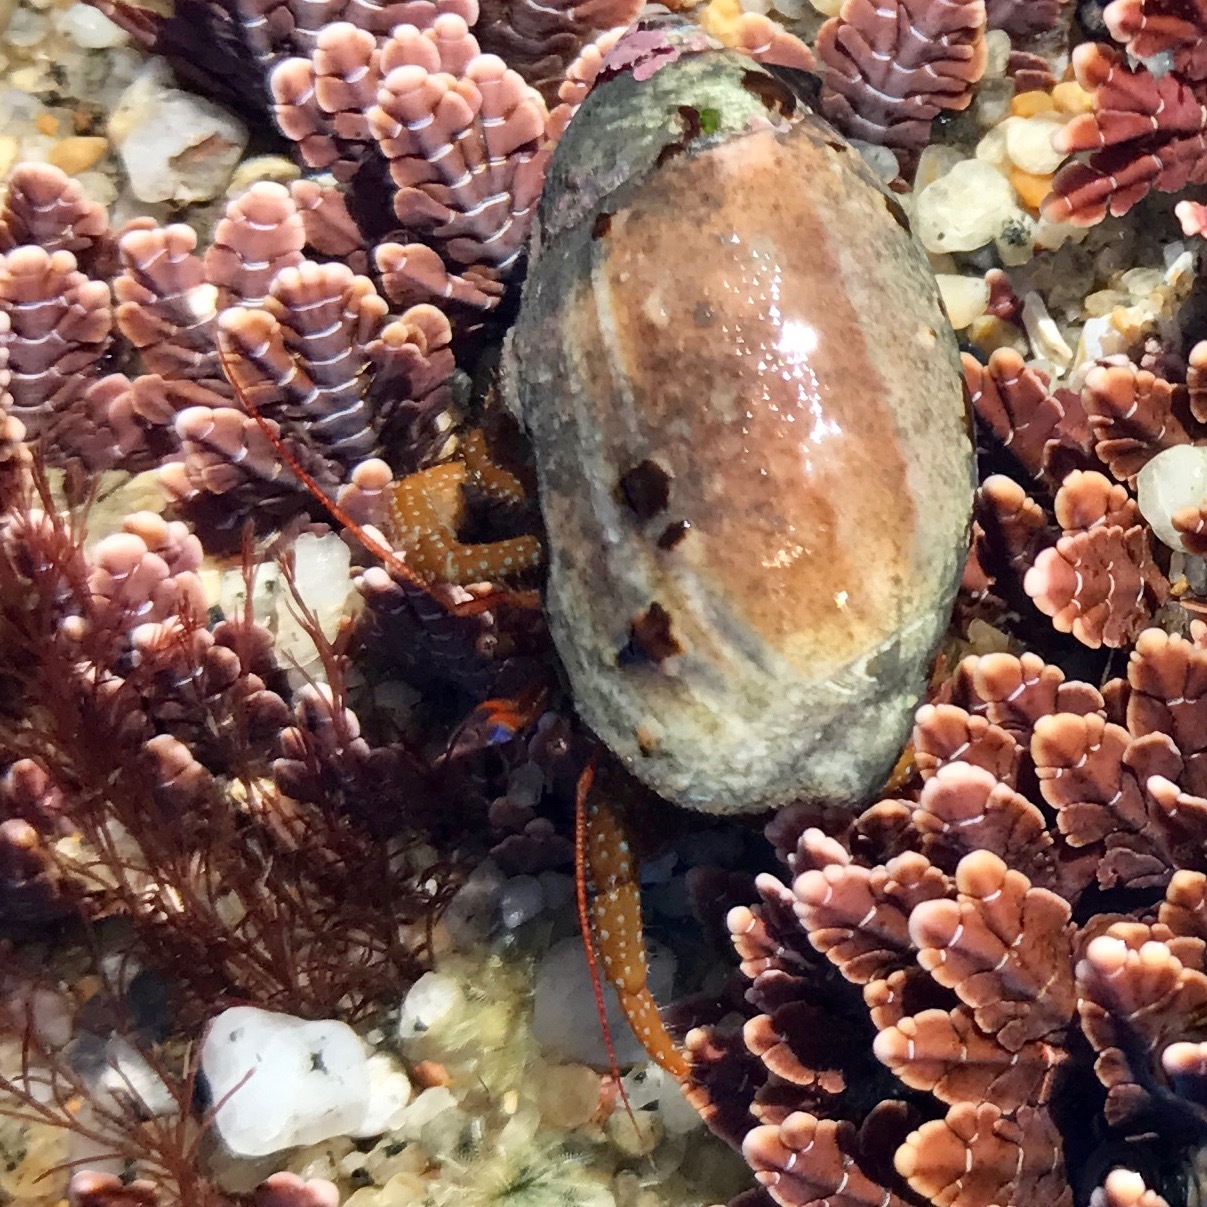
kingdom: Animalia
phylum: Arthropoda
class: Malacostraca
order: Decapoda
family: Paguridae
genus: Pagurus
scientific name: Pagurus granosimanus
